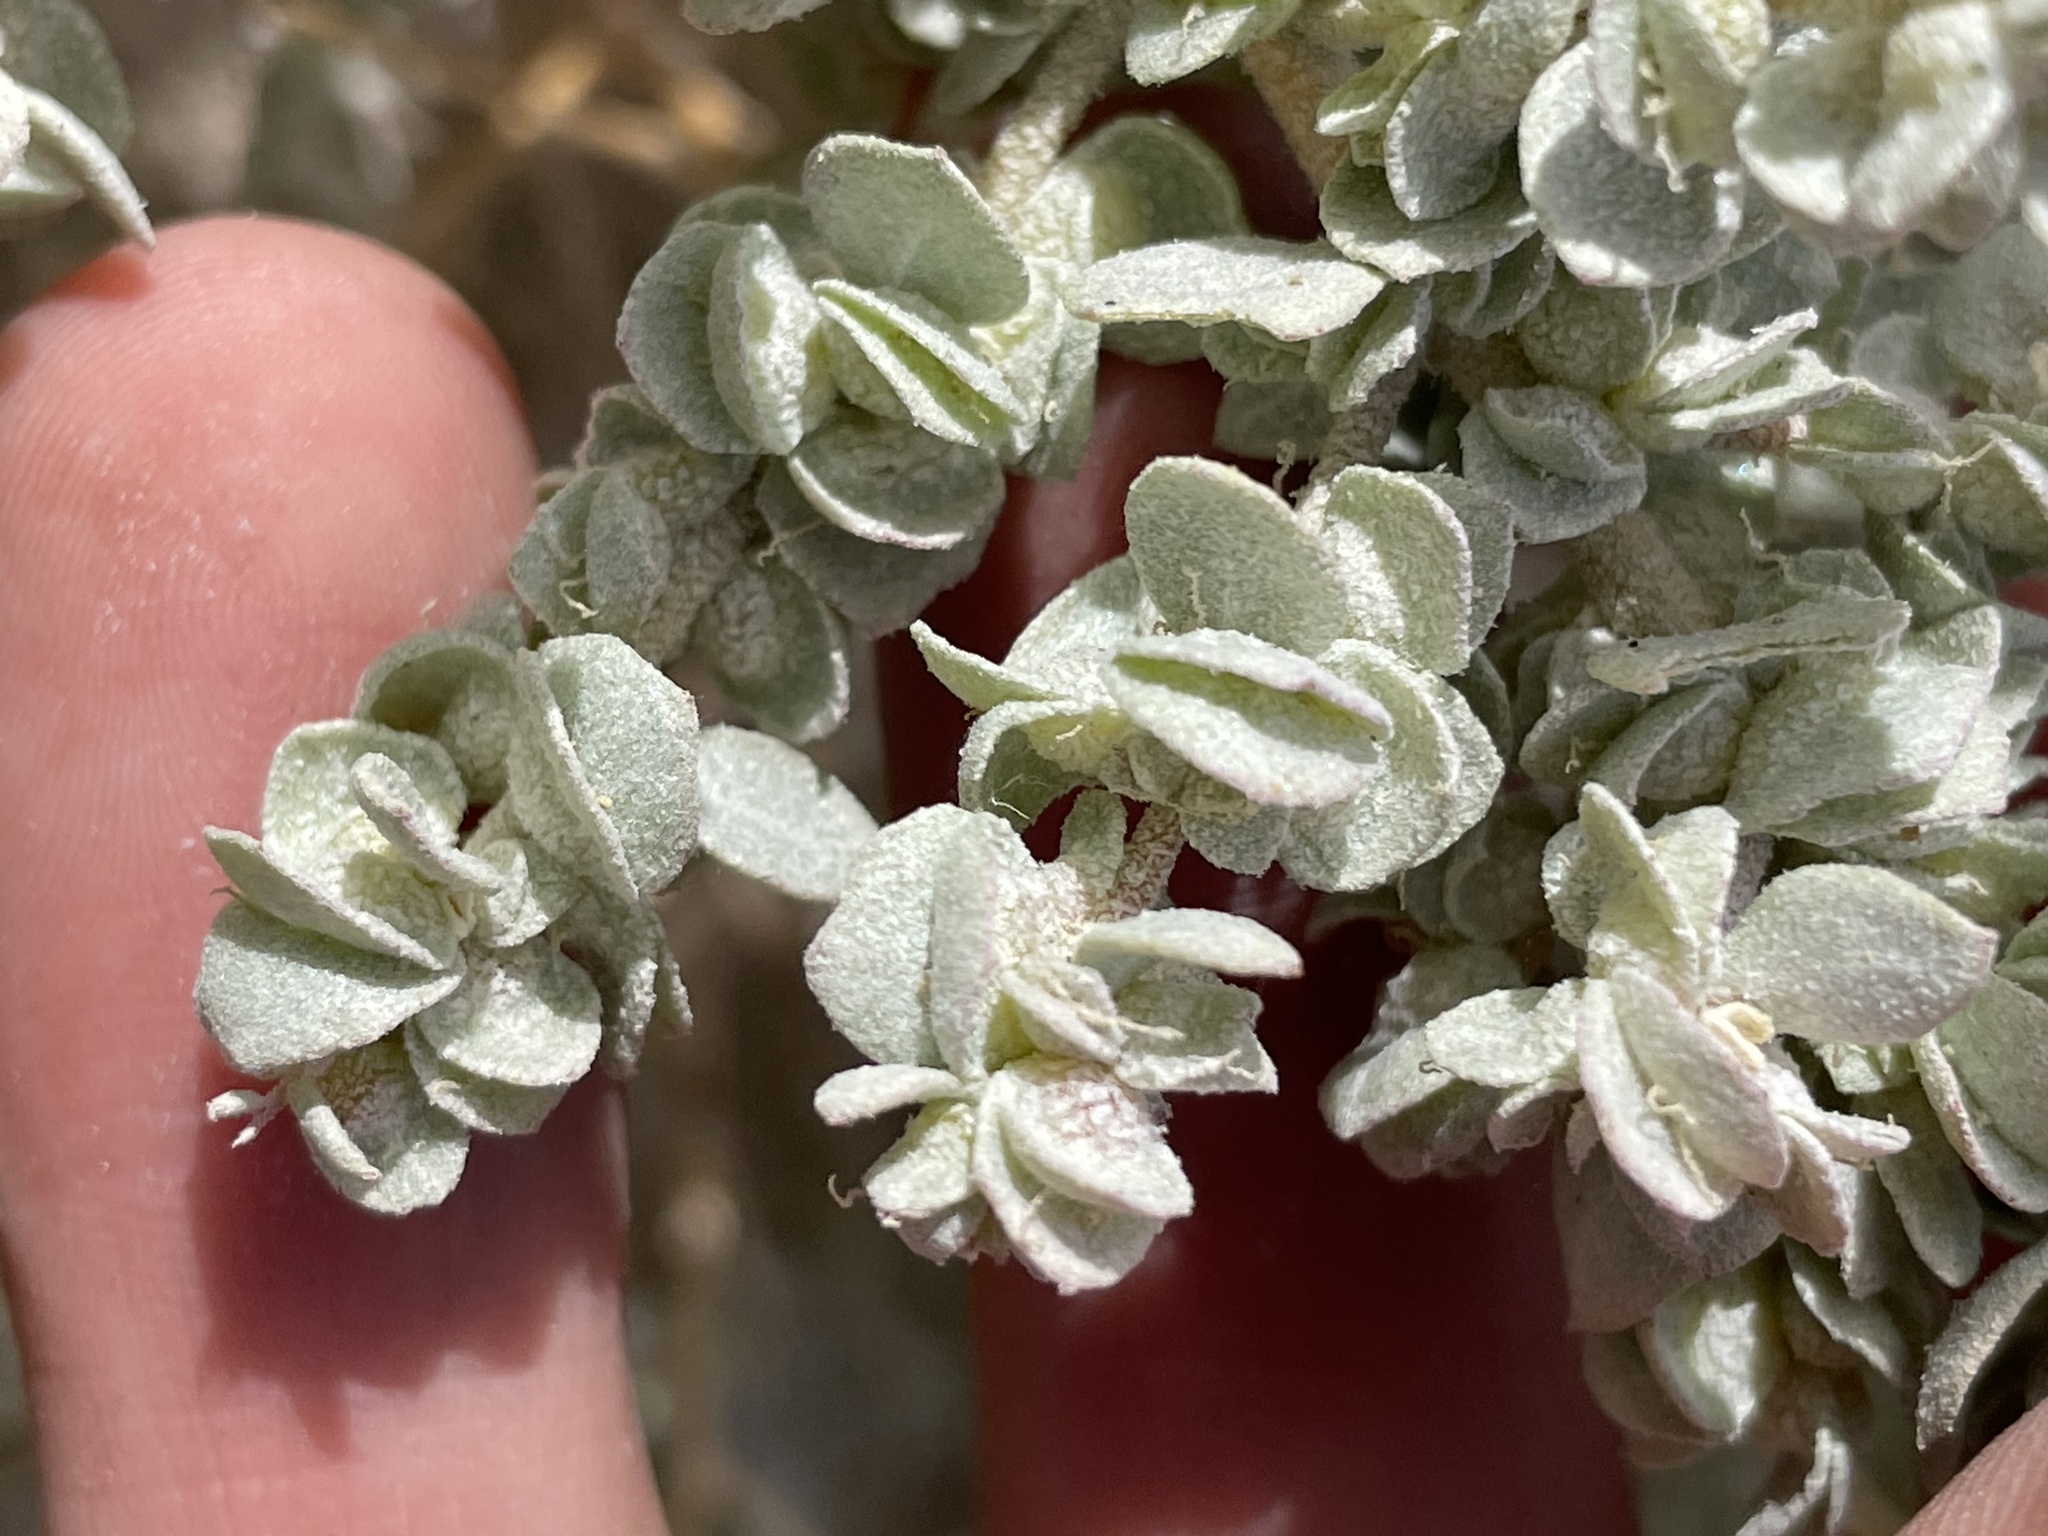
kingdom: Plantae
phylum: Tracheophyta
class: Magnoliopsida
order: Caryophyllales
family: Amaranthaceae
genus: Atriplex
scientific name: Atriplex confertifolia
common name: Shadscale
